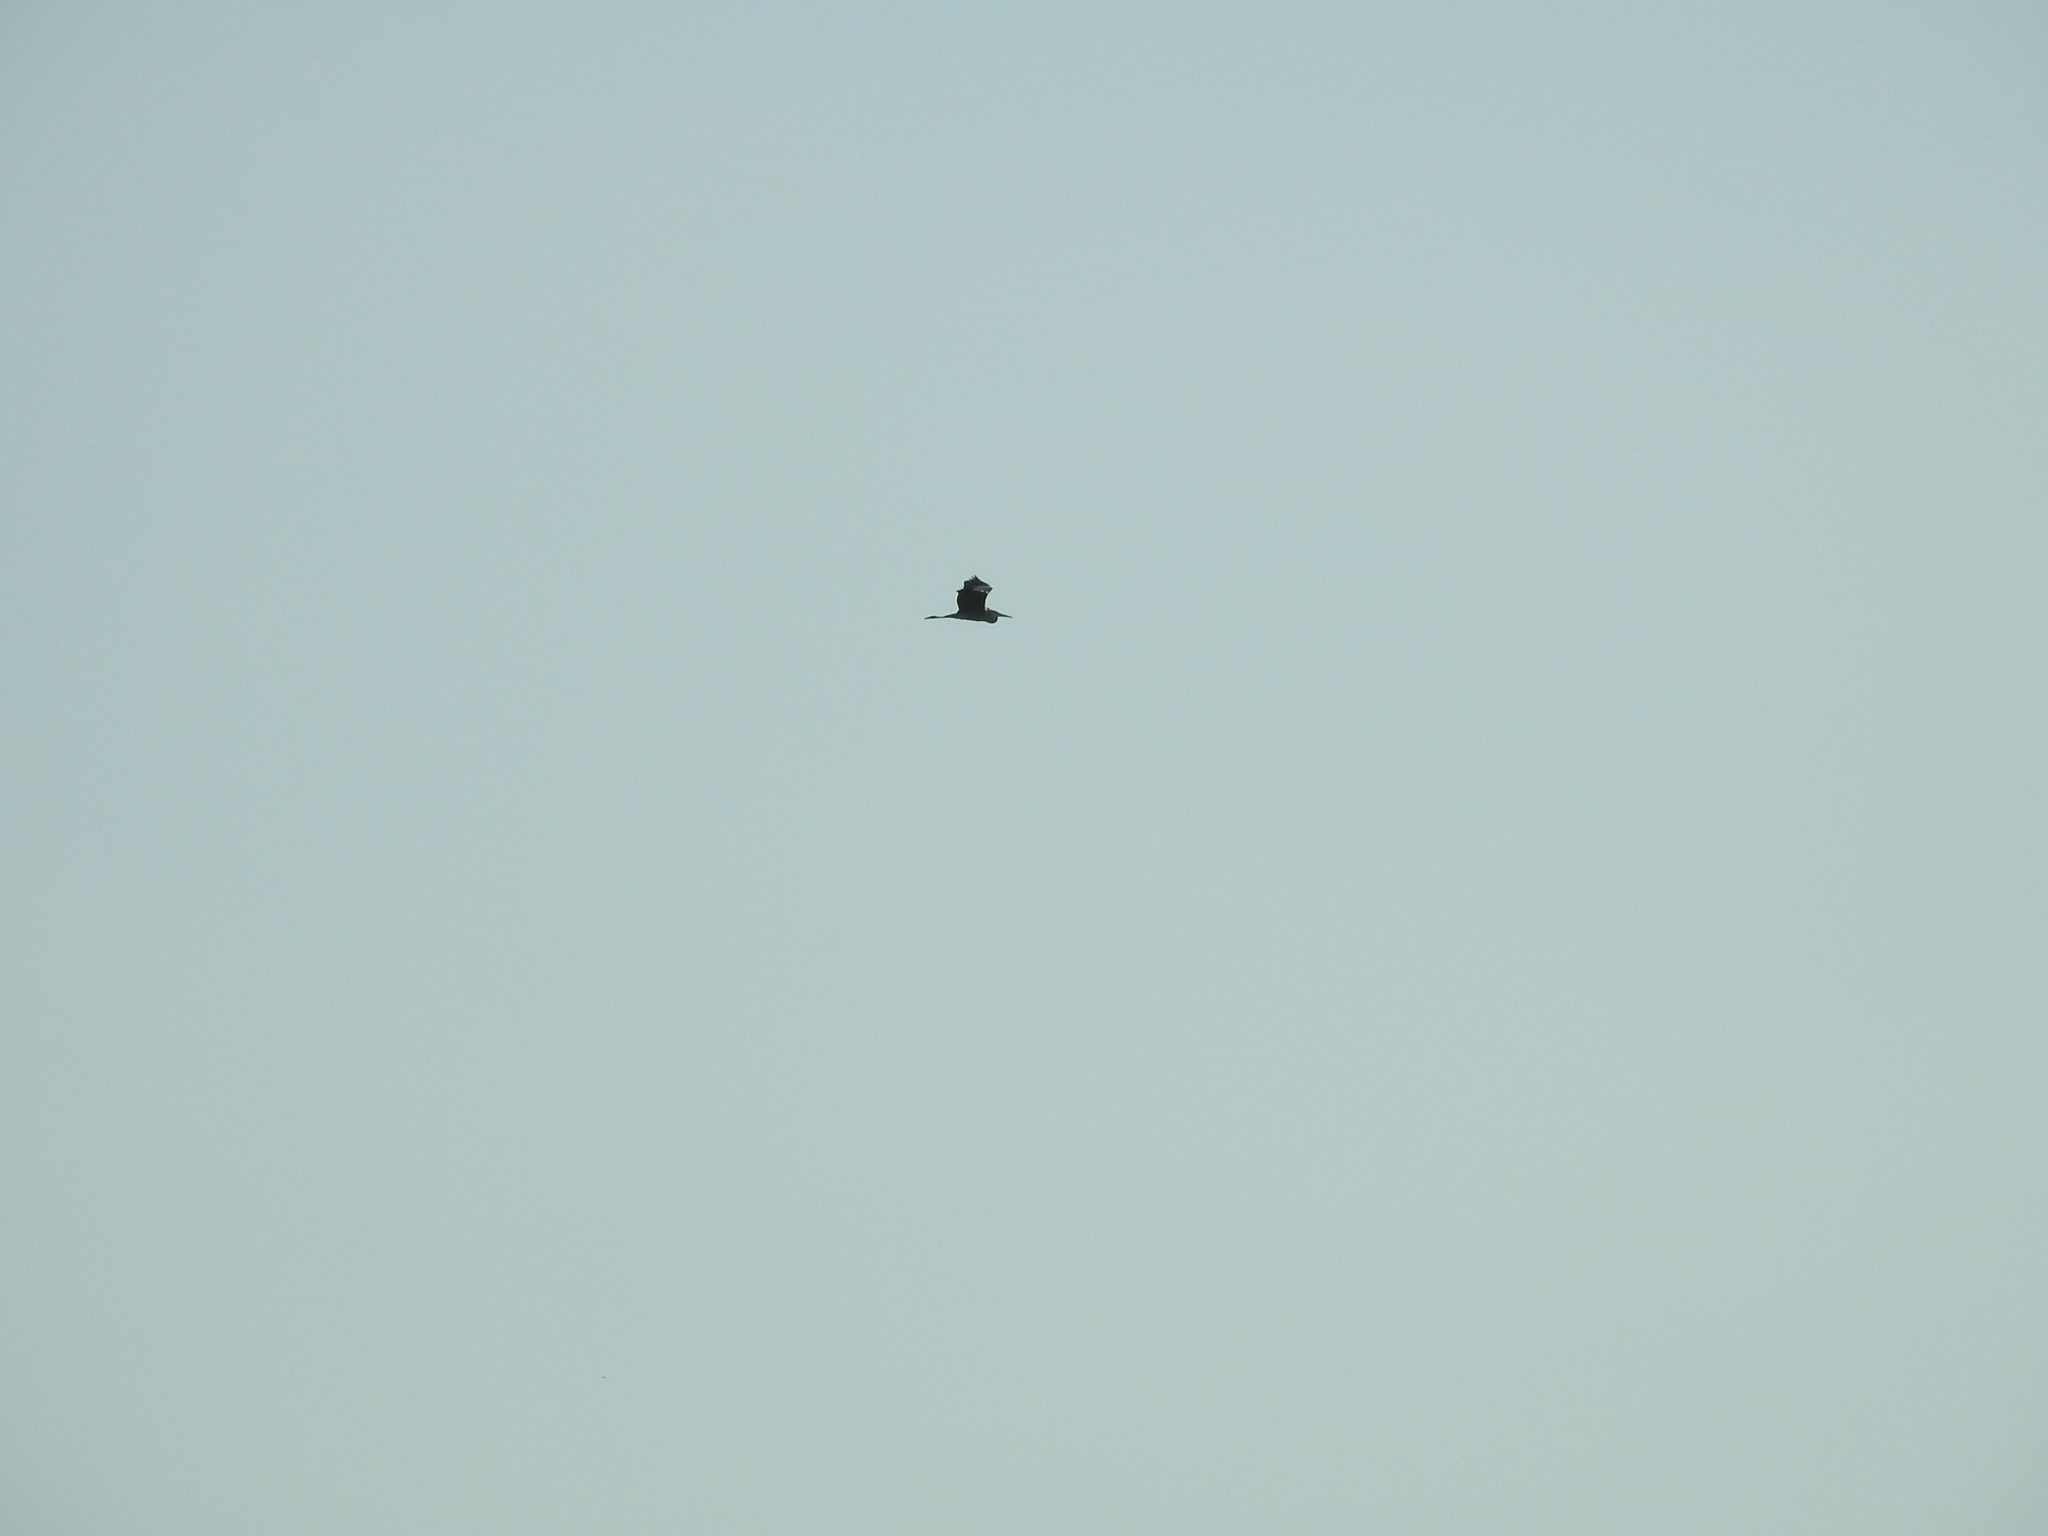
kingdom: Animalia
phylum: Chordata
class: Aves
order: Pelecaniformes
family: Ardeidae
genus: Ardea
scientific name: Ardea cinerea
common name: Grey heron
